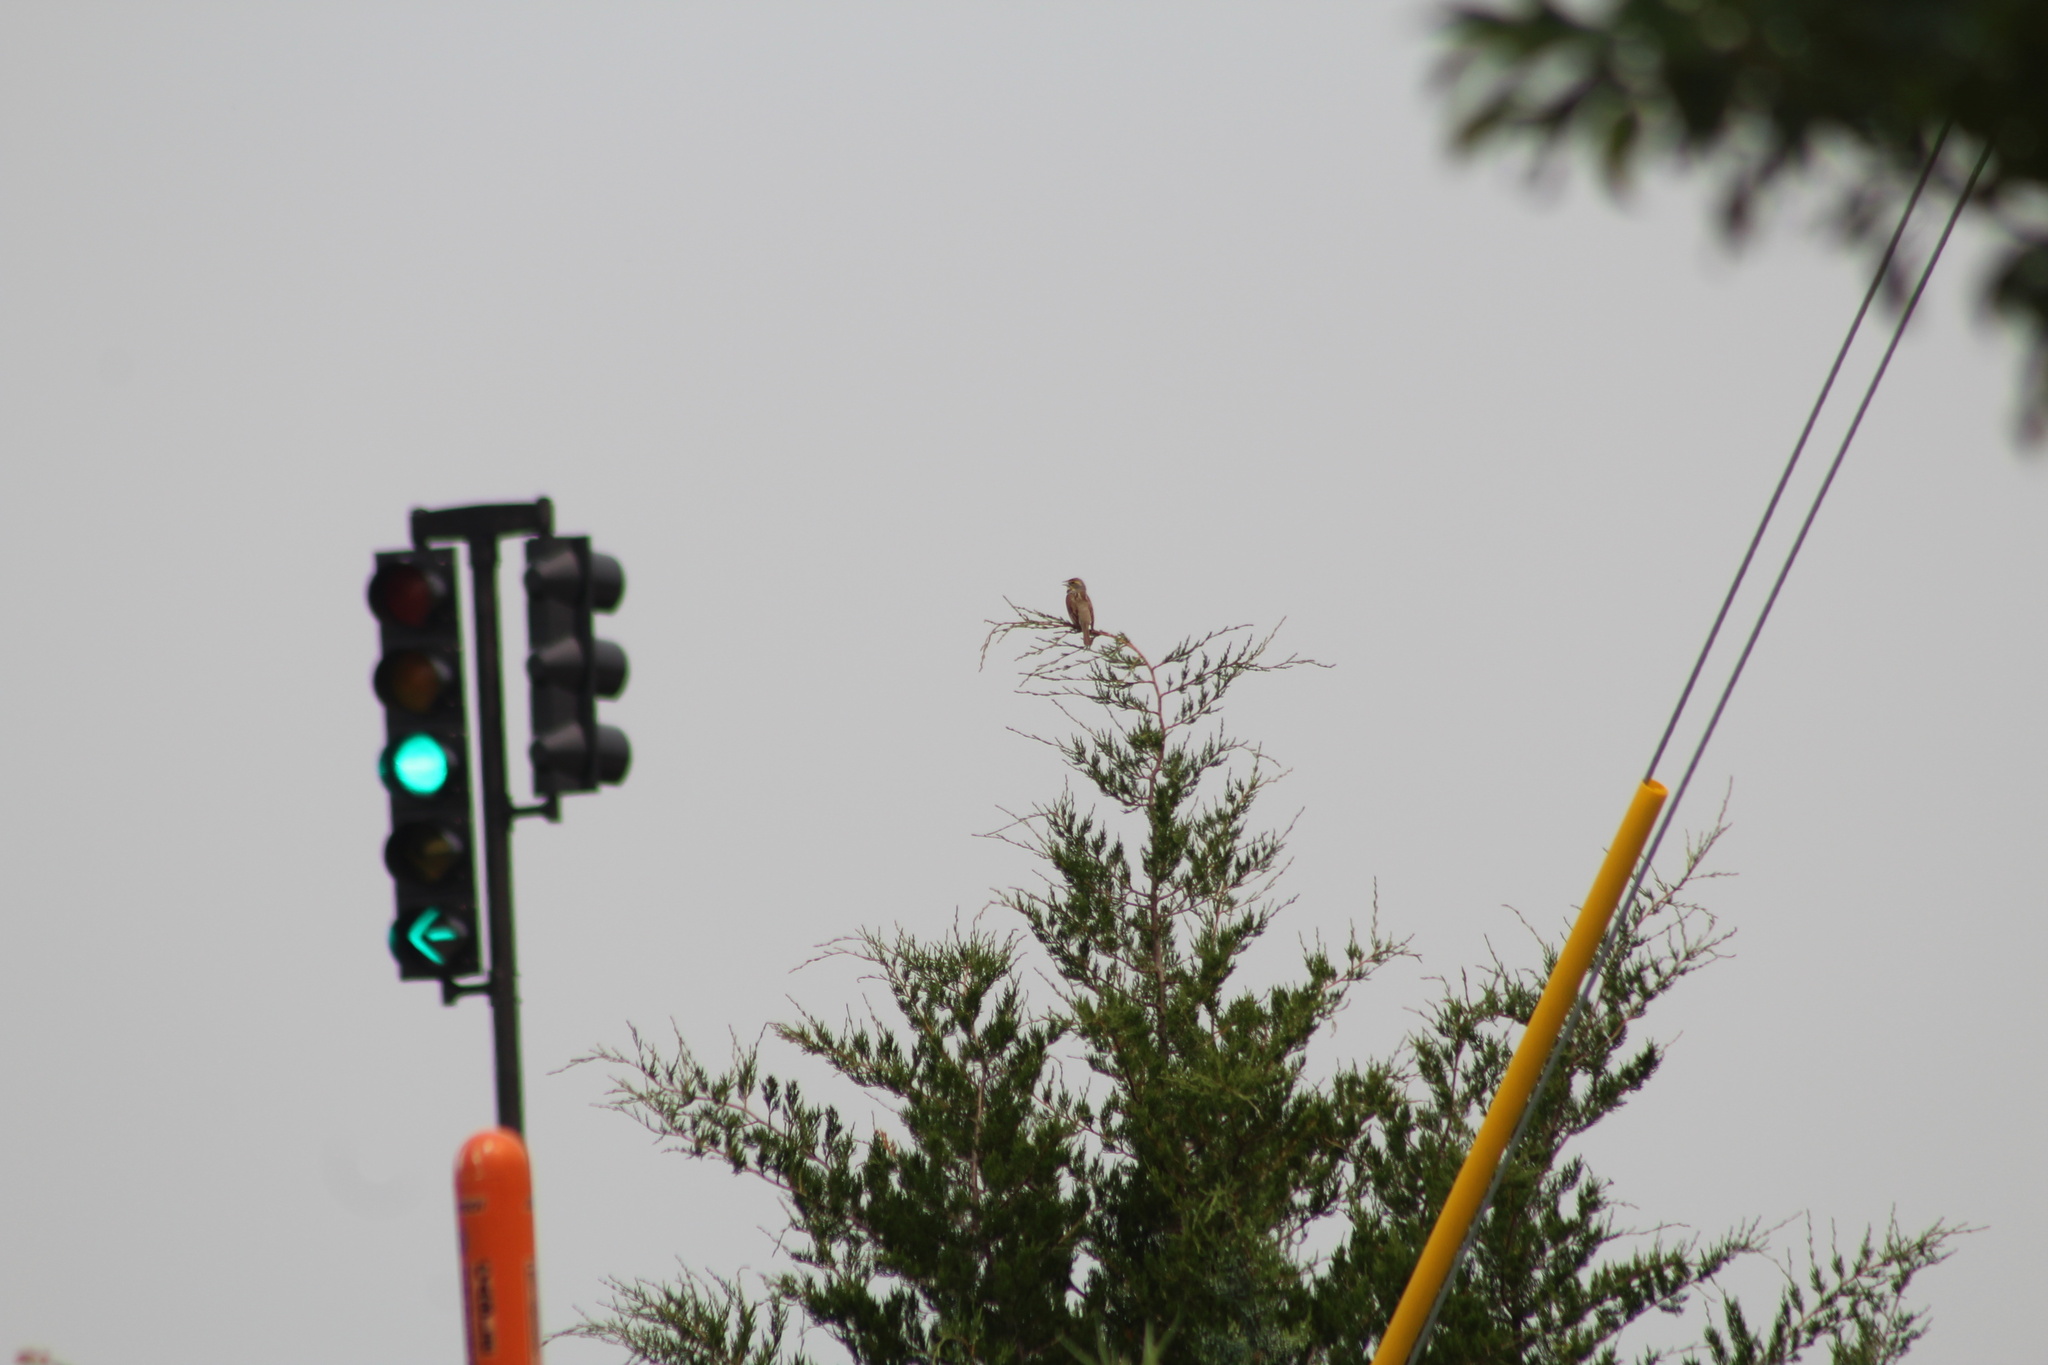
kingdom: Animalia
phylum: Chordata
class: Aves
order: Passeriformes
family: Cardinalidae
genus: Spiza
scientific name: Spiza americana
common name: Dickcissel
